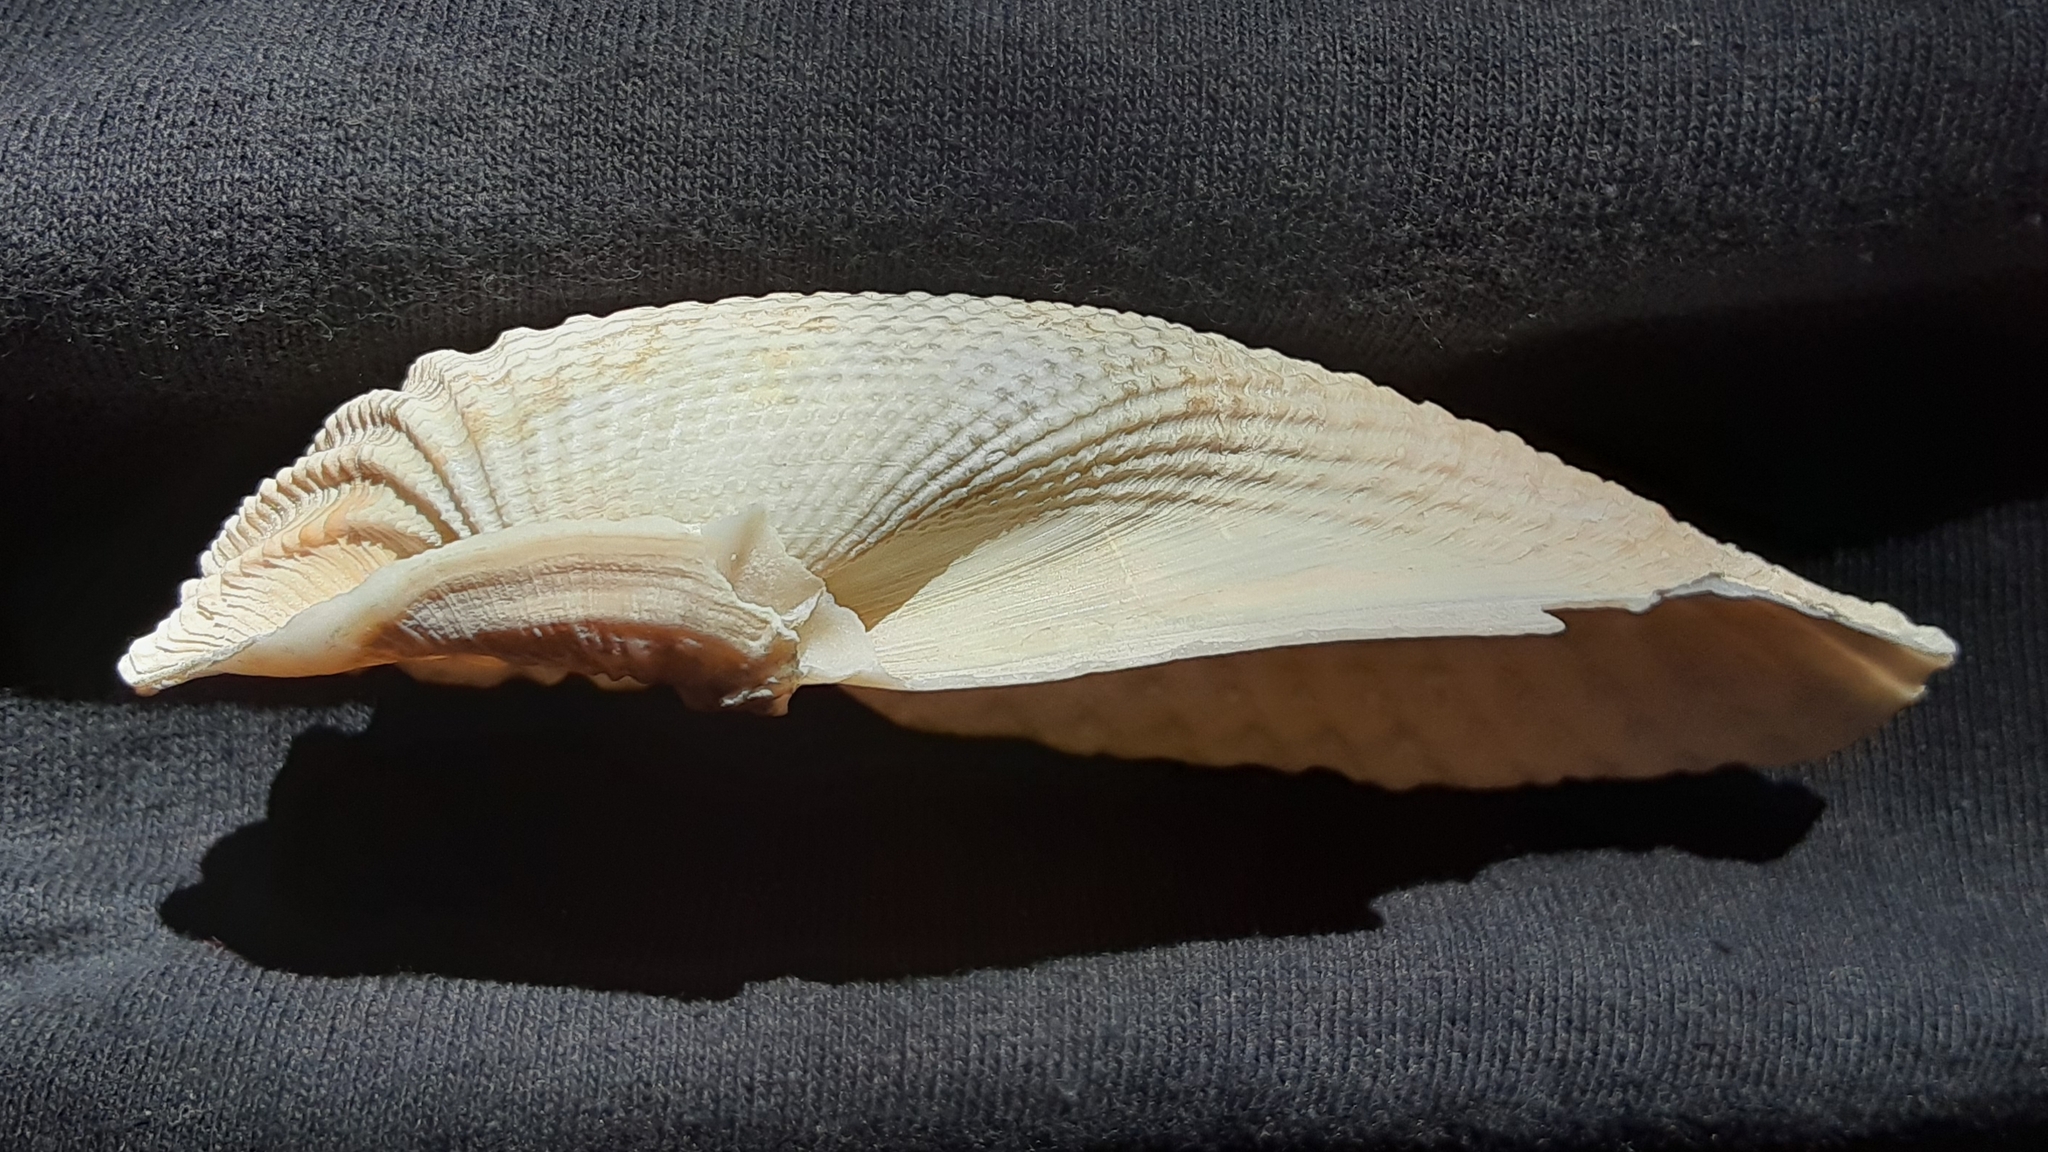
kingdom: Animalia
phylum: Mollusca
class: Bivalvia
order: Myida
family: Pholadidae
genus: Cyrtopleura
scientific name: Cyrtopleura costata
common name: Angel wing
